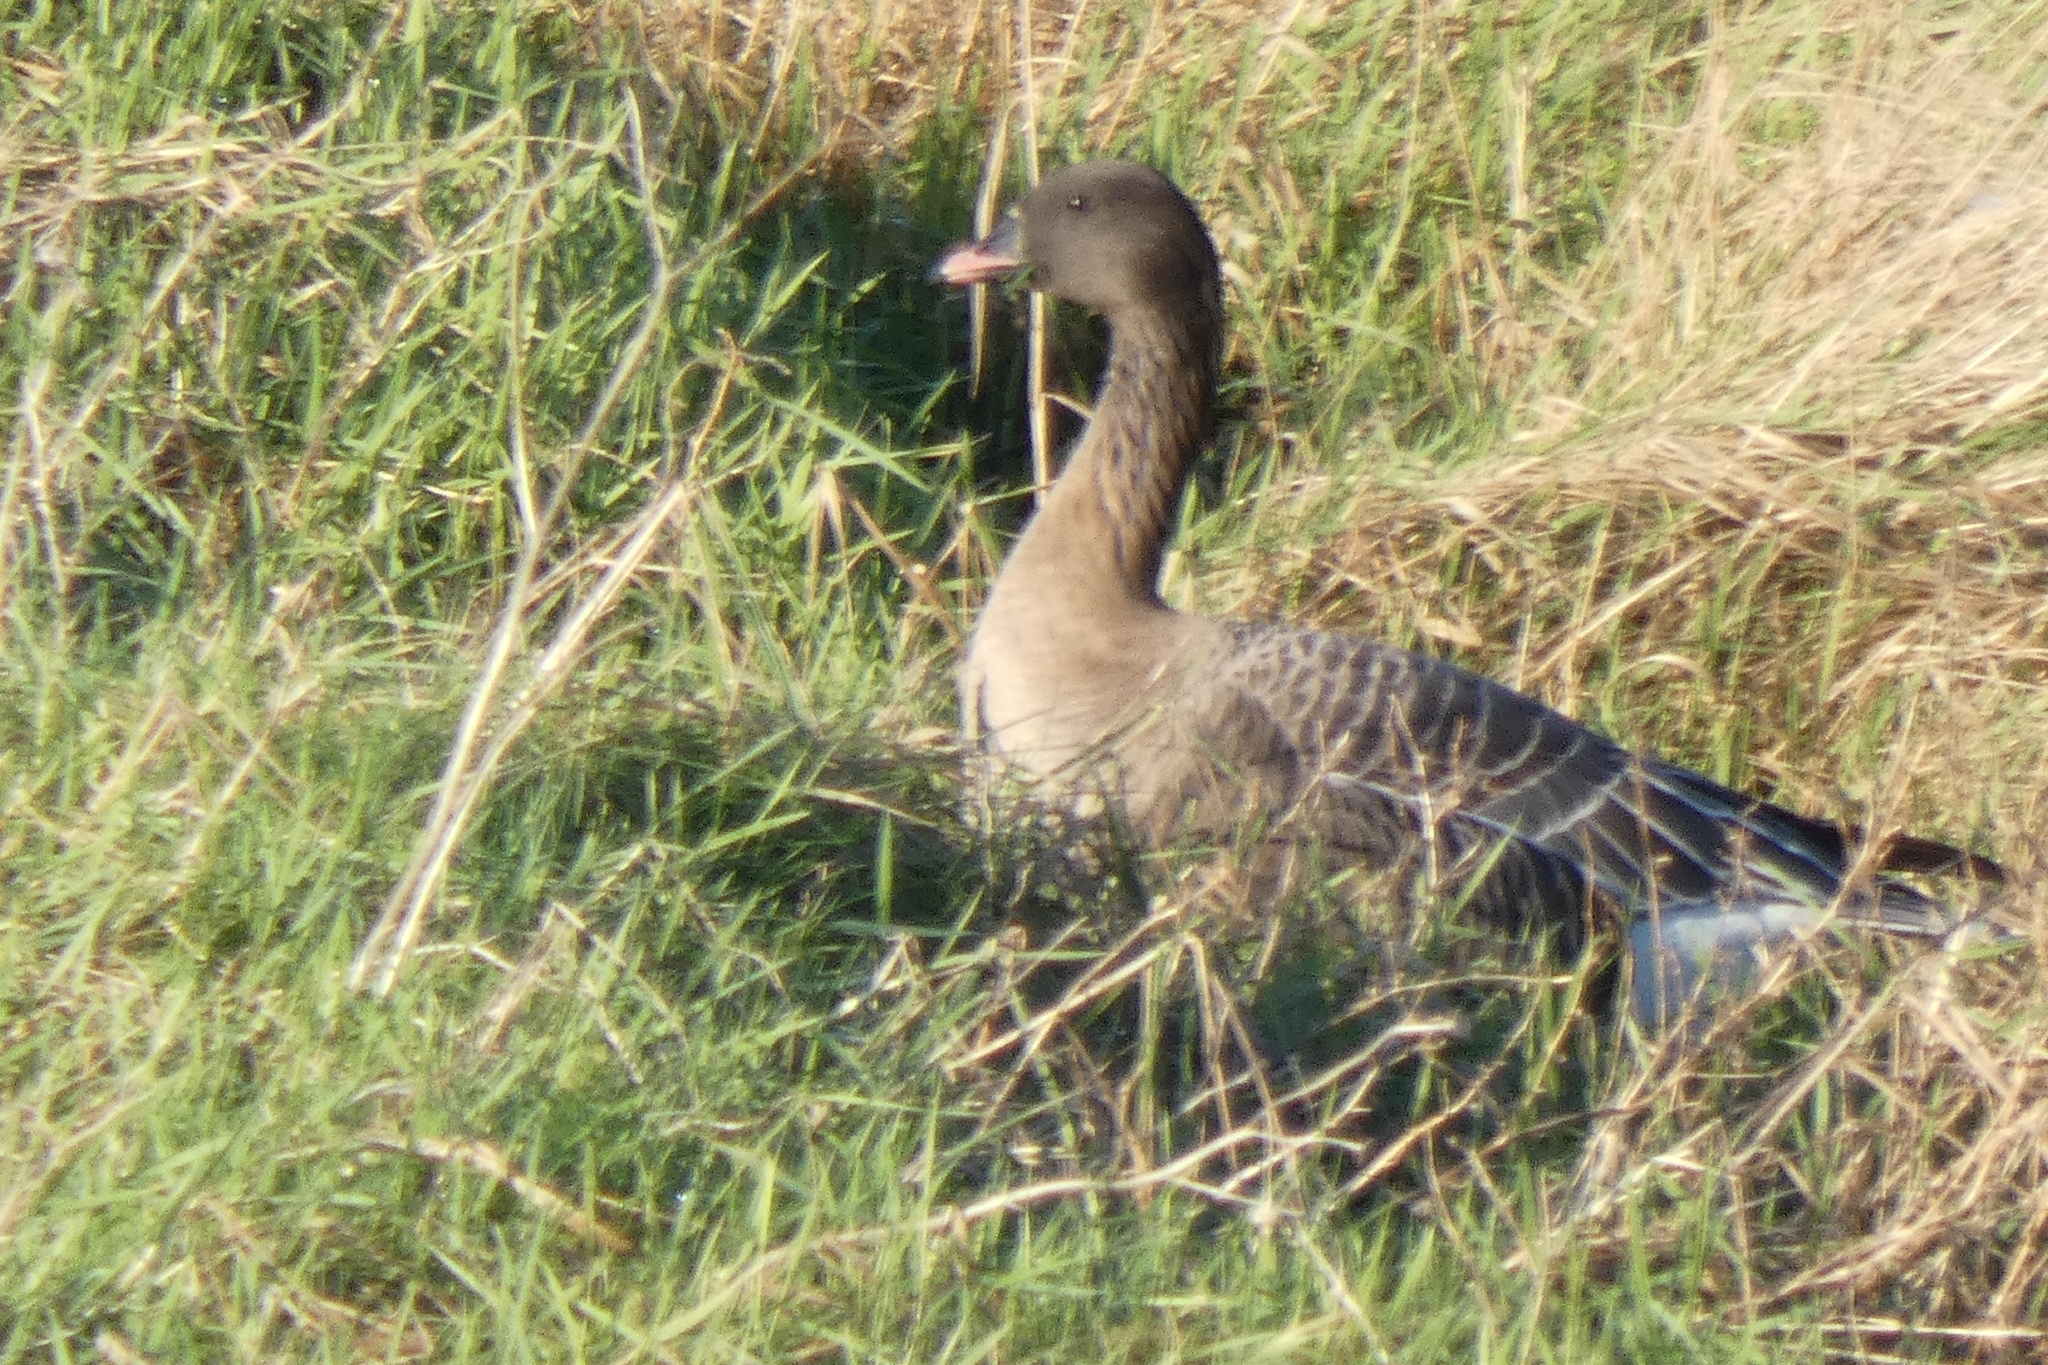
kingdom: Animalia
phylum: Chordata
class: Aves
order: Anseriformes
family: Anatidae
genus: Anser
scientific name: Anser brachyrhynchus
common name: Pink-footed goose
